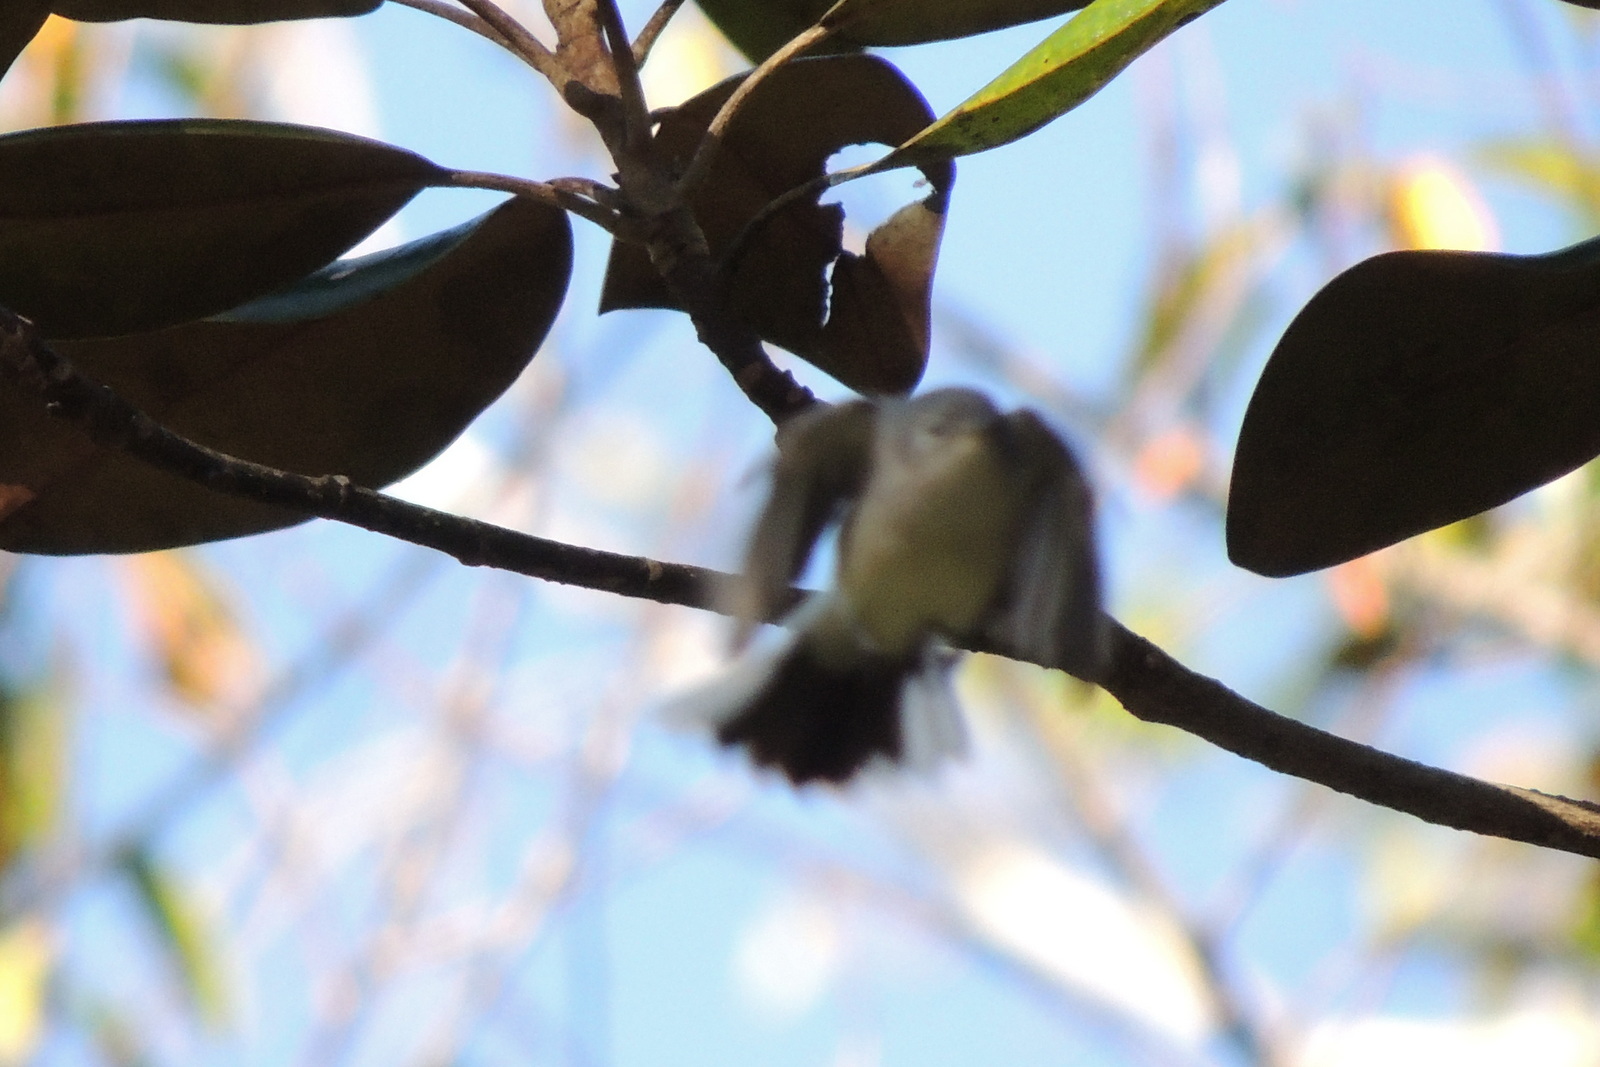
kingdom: Animalia
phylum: Chordata
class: Aves
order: Passeriformes
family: Polioptilidae
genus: Polioptila
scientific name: Polioptila caerulea
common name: Blue-gray gnatcatcher
